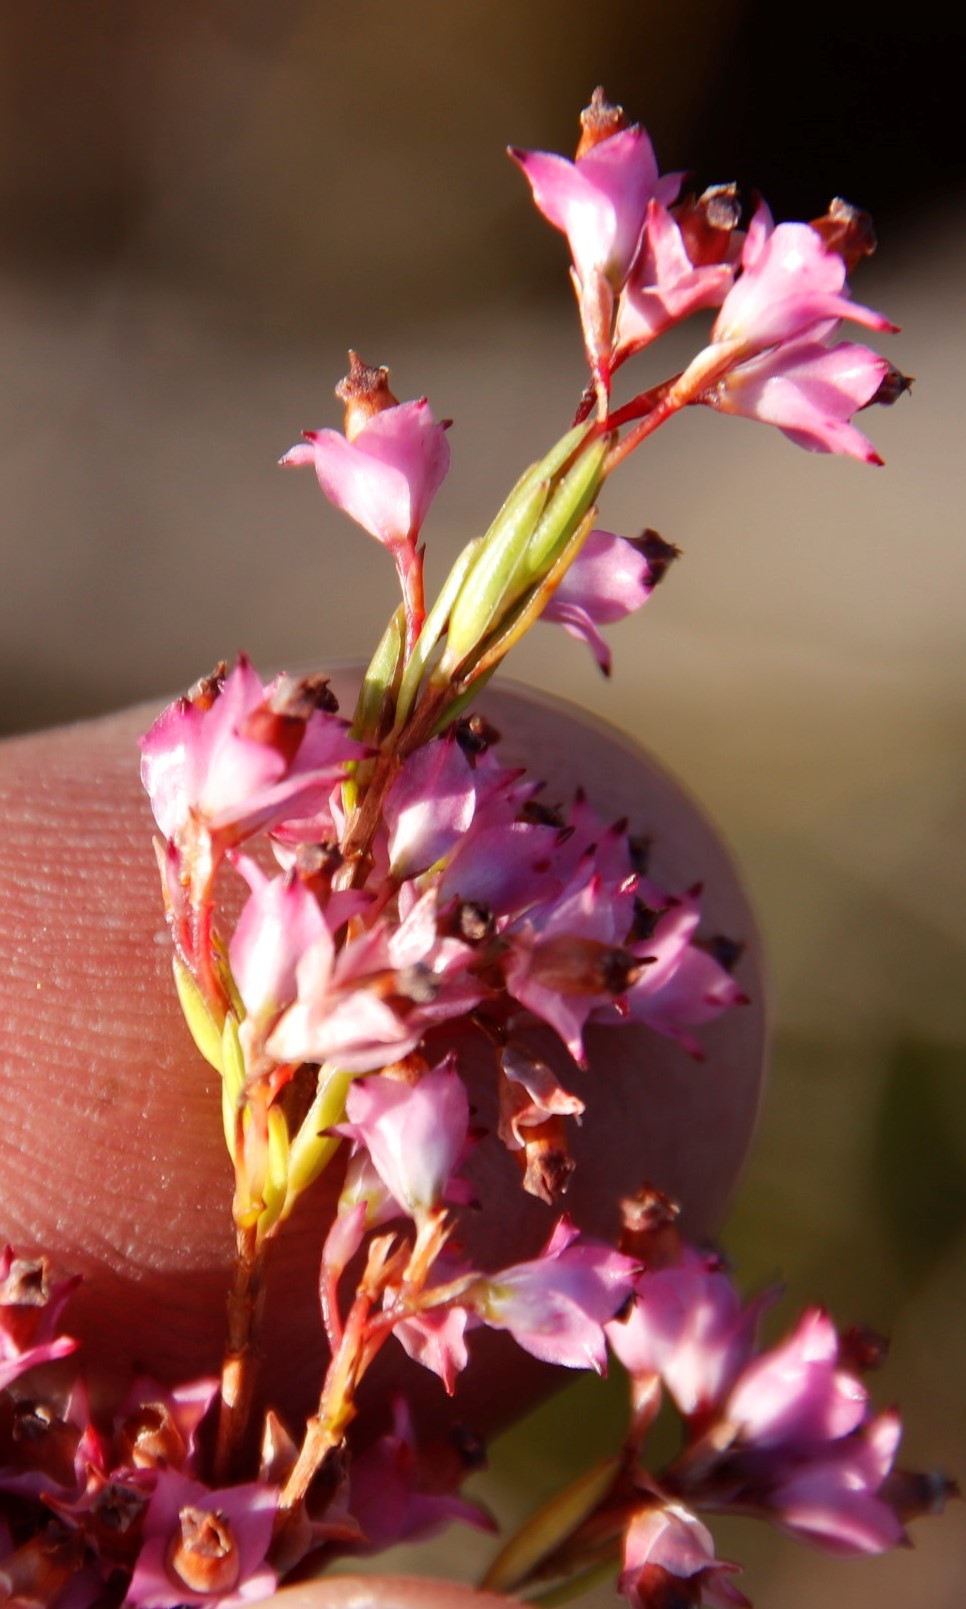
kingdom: Plantae
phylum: Tracheophyta
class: Magnoliopsida
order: Ericales
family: Ericaceae
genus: Erica
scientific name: Erica corifolia
